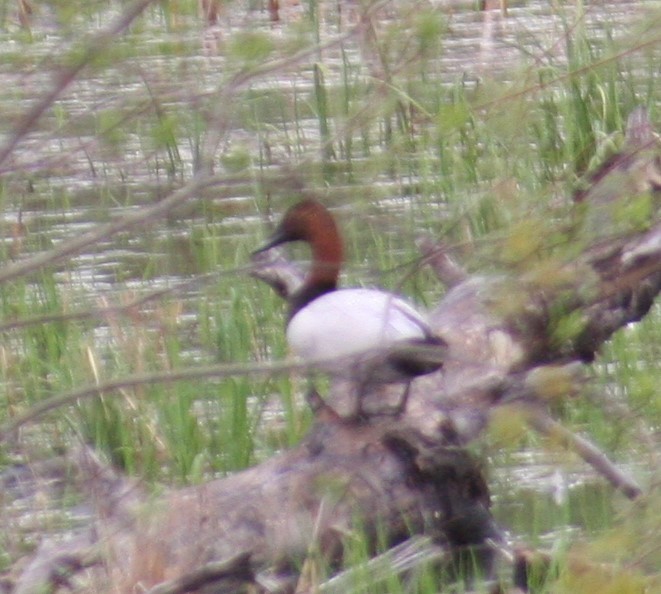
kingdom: Animalia
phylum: Chordata
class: Aves
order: Anseriformes
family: Anatidae
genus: Aythya
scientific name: Aythya valisineria
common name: Canvasback
